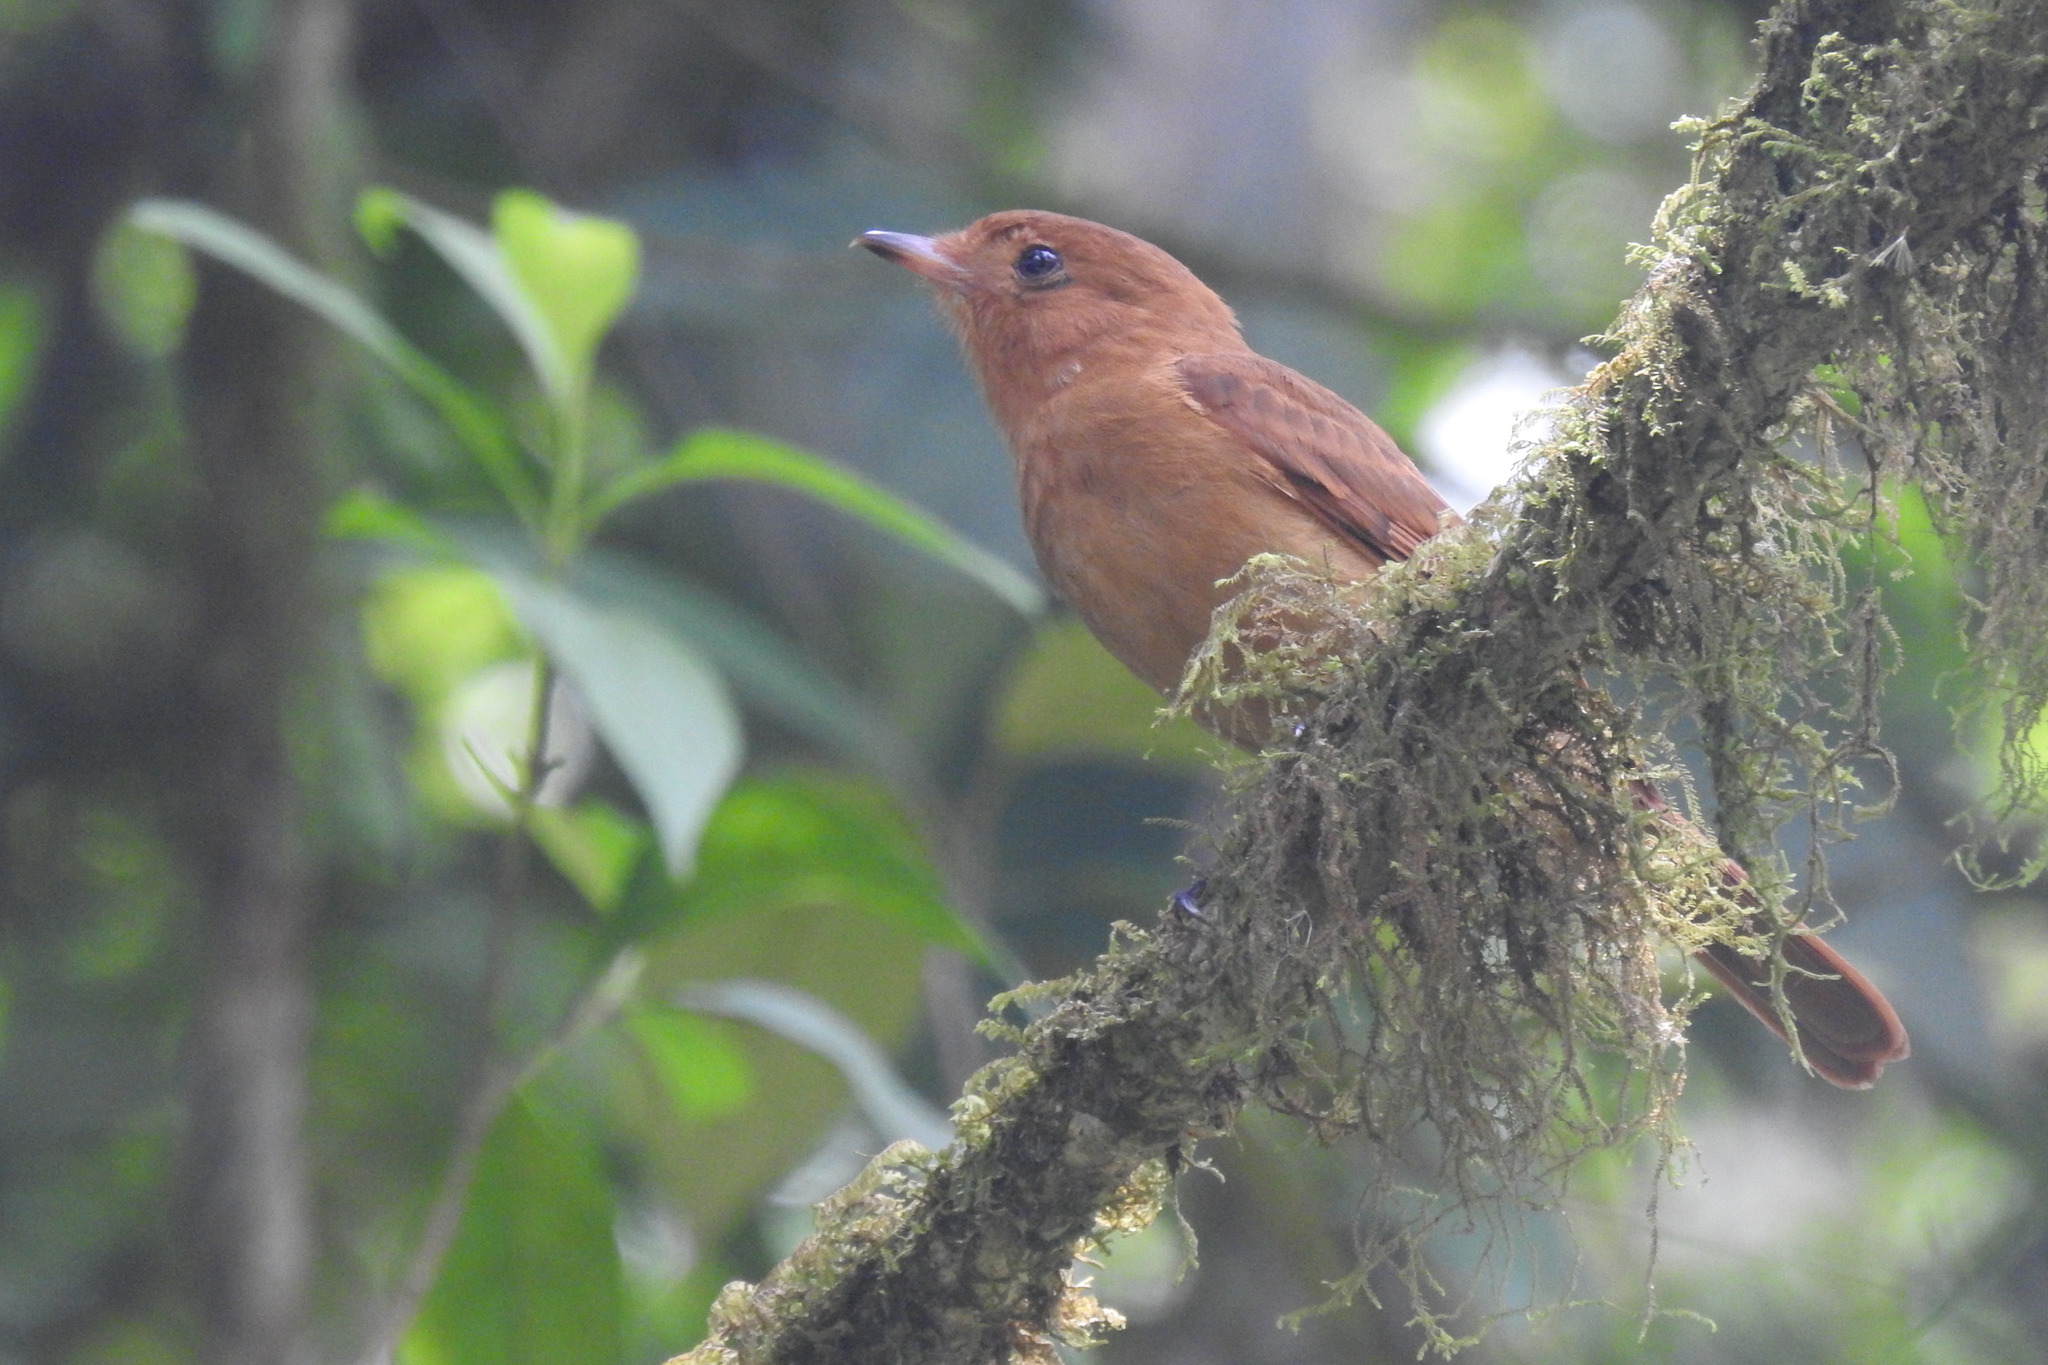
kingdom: Animalia
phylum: Chordata
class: Aves
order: Passeriformes
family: Tyrannidae
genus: Rhytipterna
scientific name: Rhytipterna holerythra
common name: Rufous mourner
